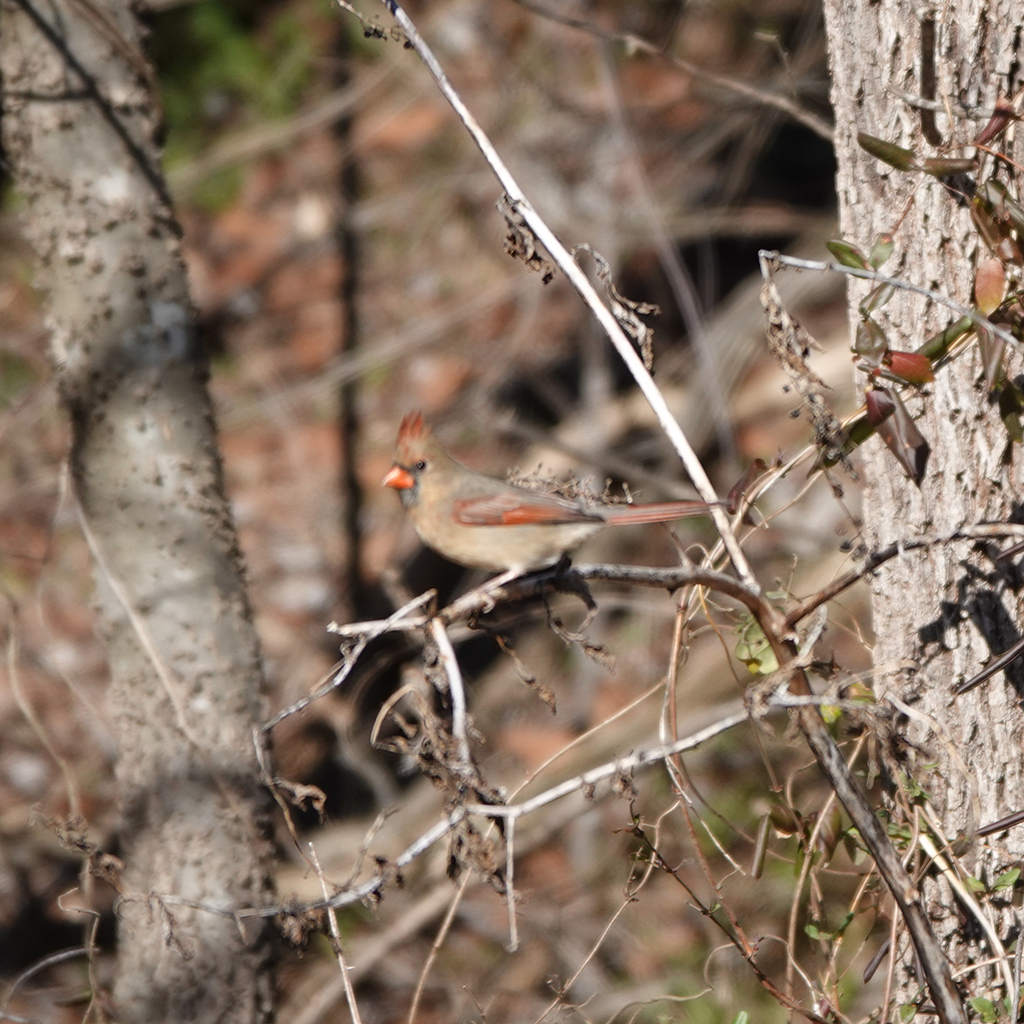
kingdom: Animalia
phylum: Chordata
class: Aves
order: Passeriformes
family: Cardinalidae
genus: Cardinalis
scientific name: Cardinalis cardinalis
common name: Northern cardinal
